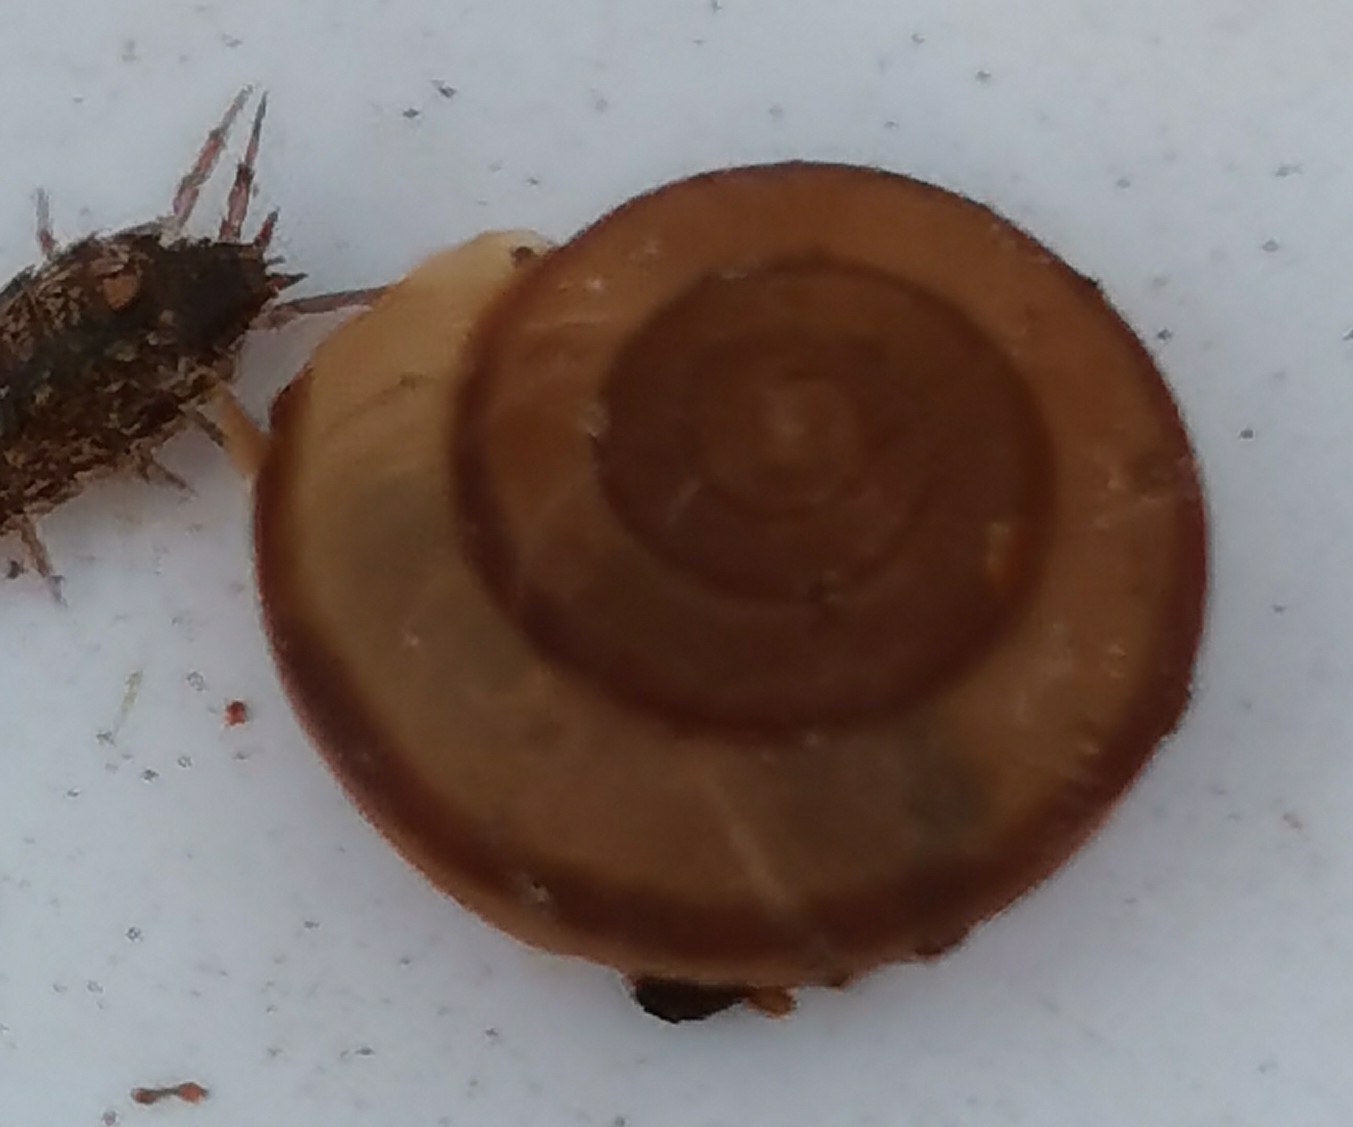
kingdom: Animalia
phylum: Mollusca
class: Gastropoda
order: Stylommatophora
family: Hygromiidae
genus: Hygromia
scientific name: Hygromia cinctella
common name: Girdled snail
